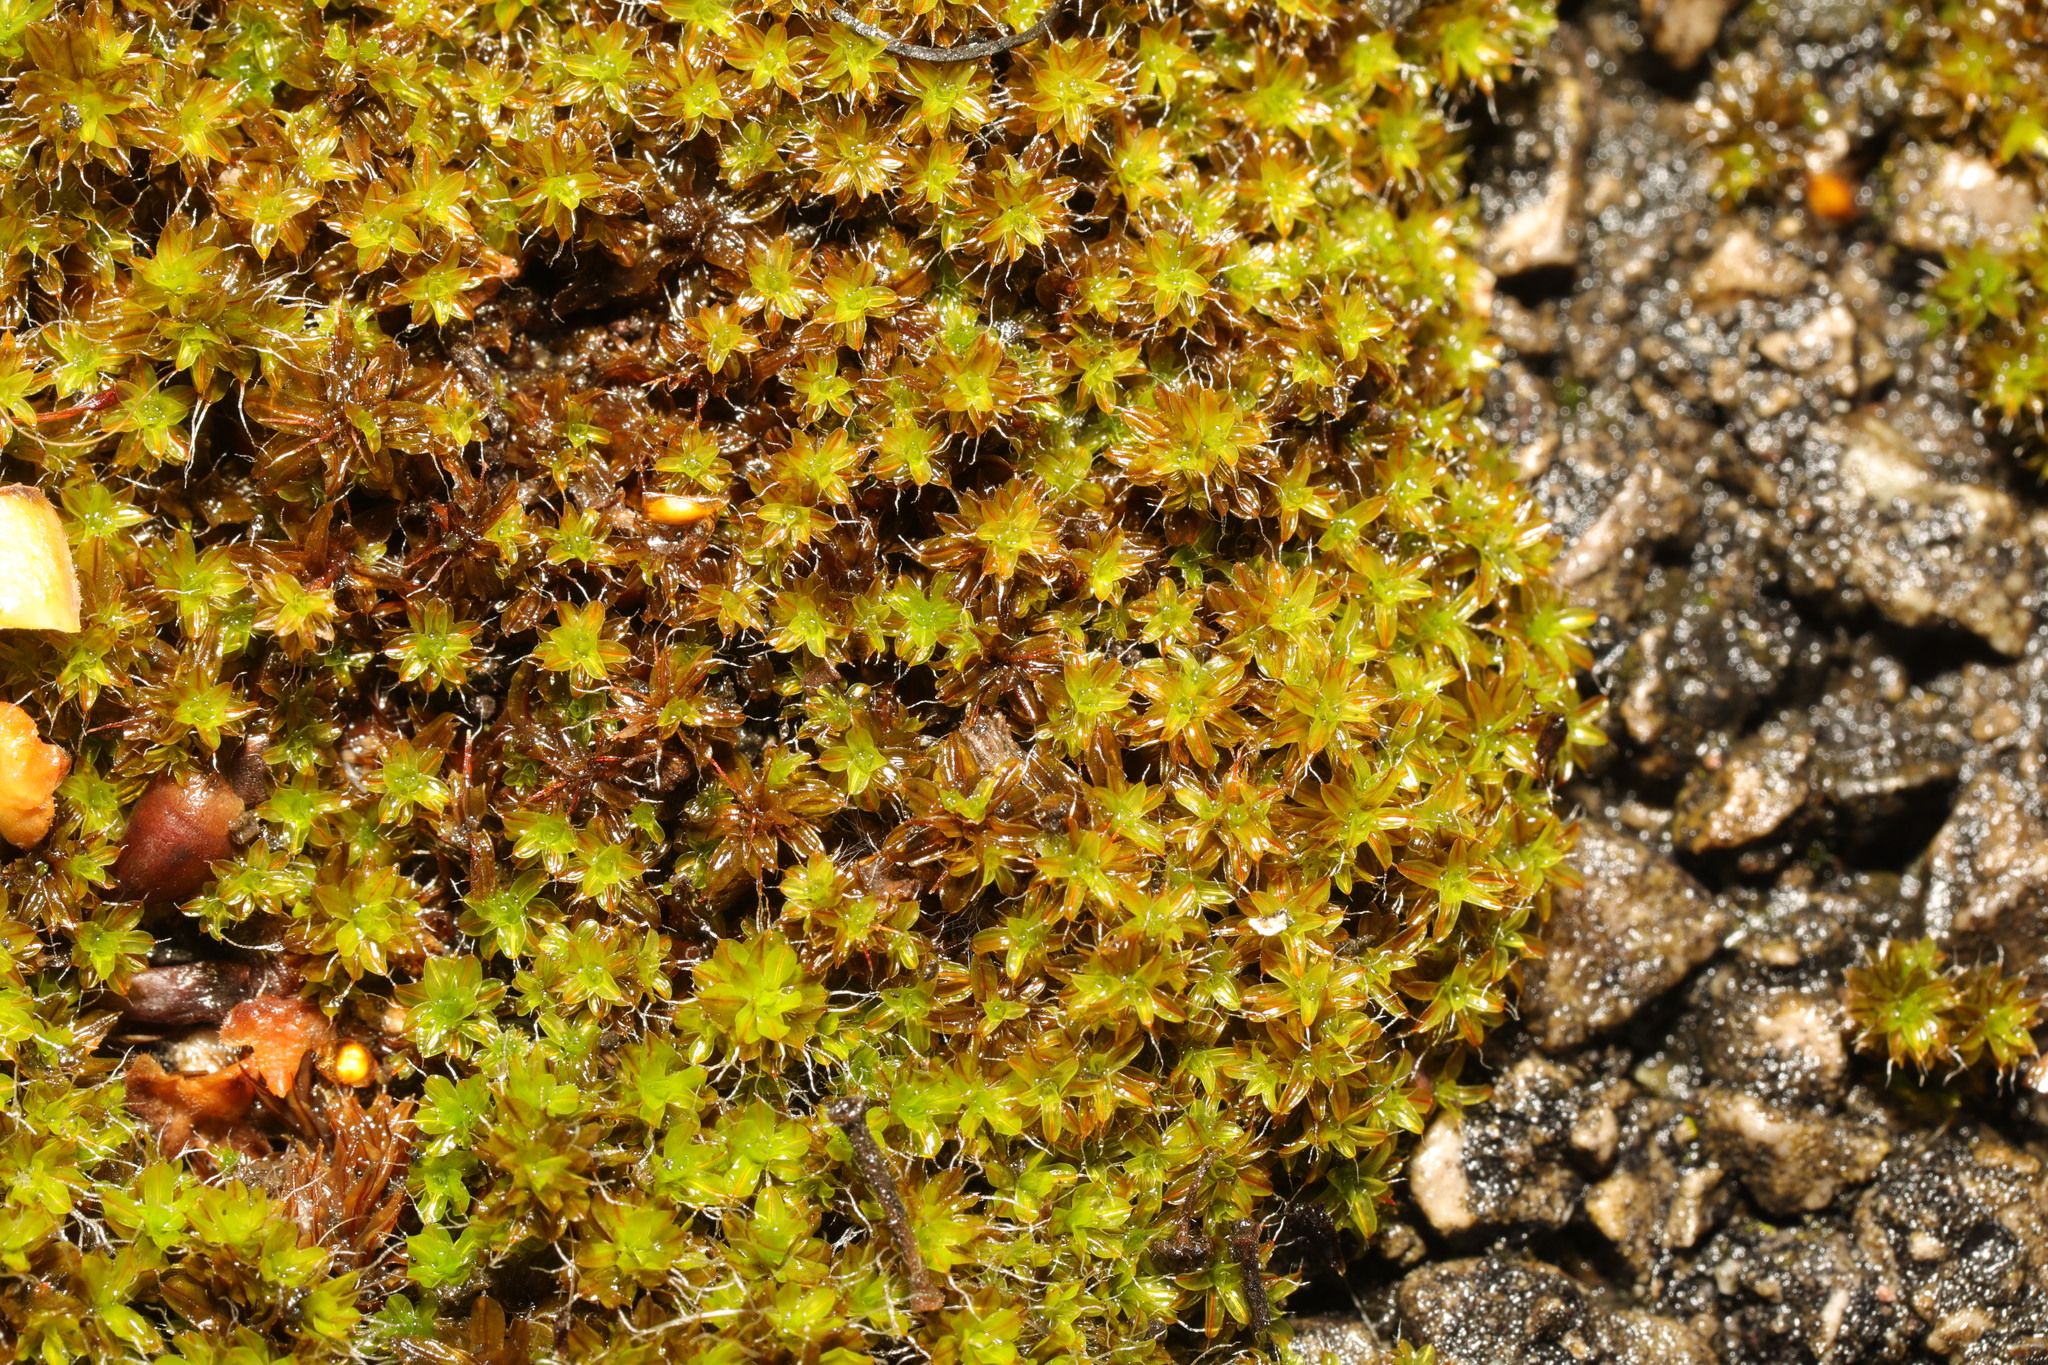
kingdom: Plantae
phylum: Bryophyta
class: Bryopsida
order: Pottiales
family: Pottiaceae
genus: Syntrichia
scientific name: Syntrichia ruralis
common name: Sidewalk screw moss
